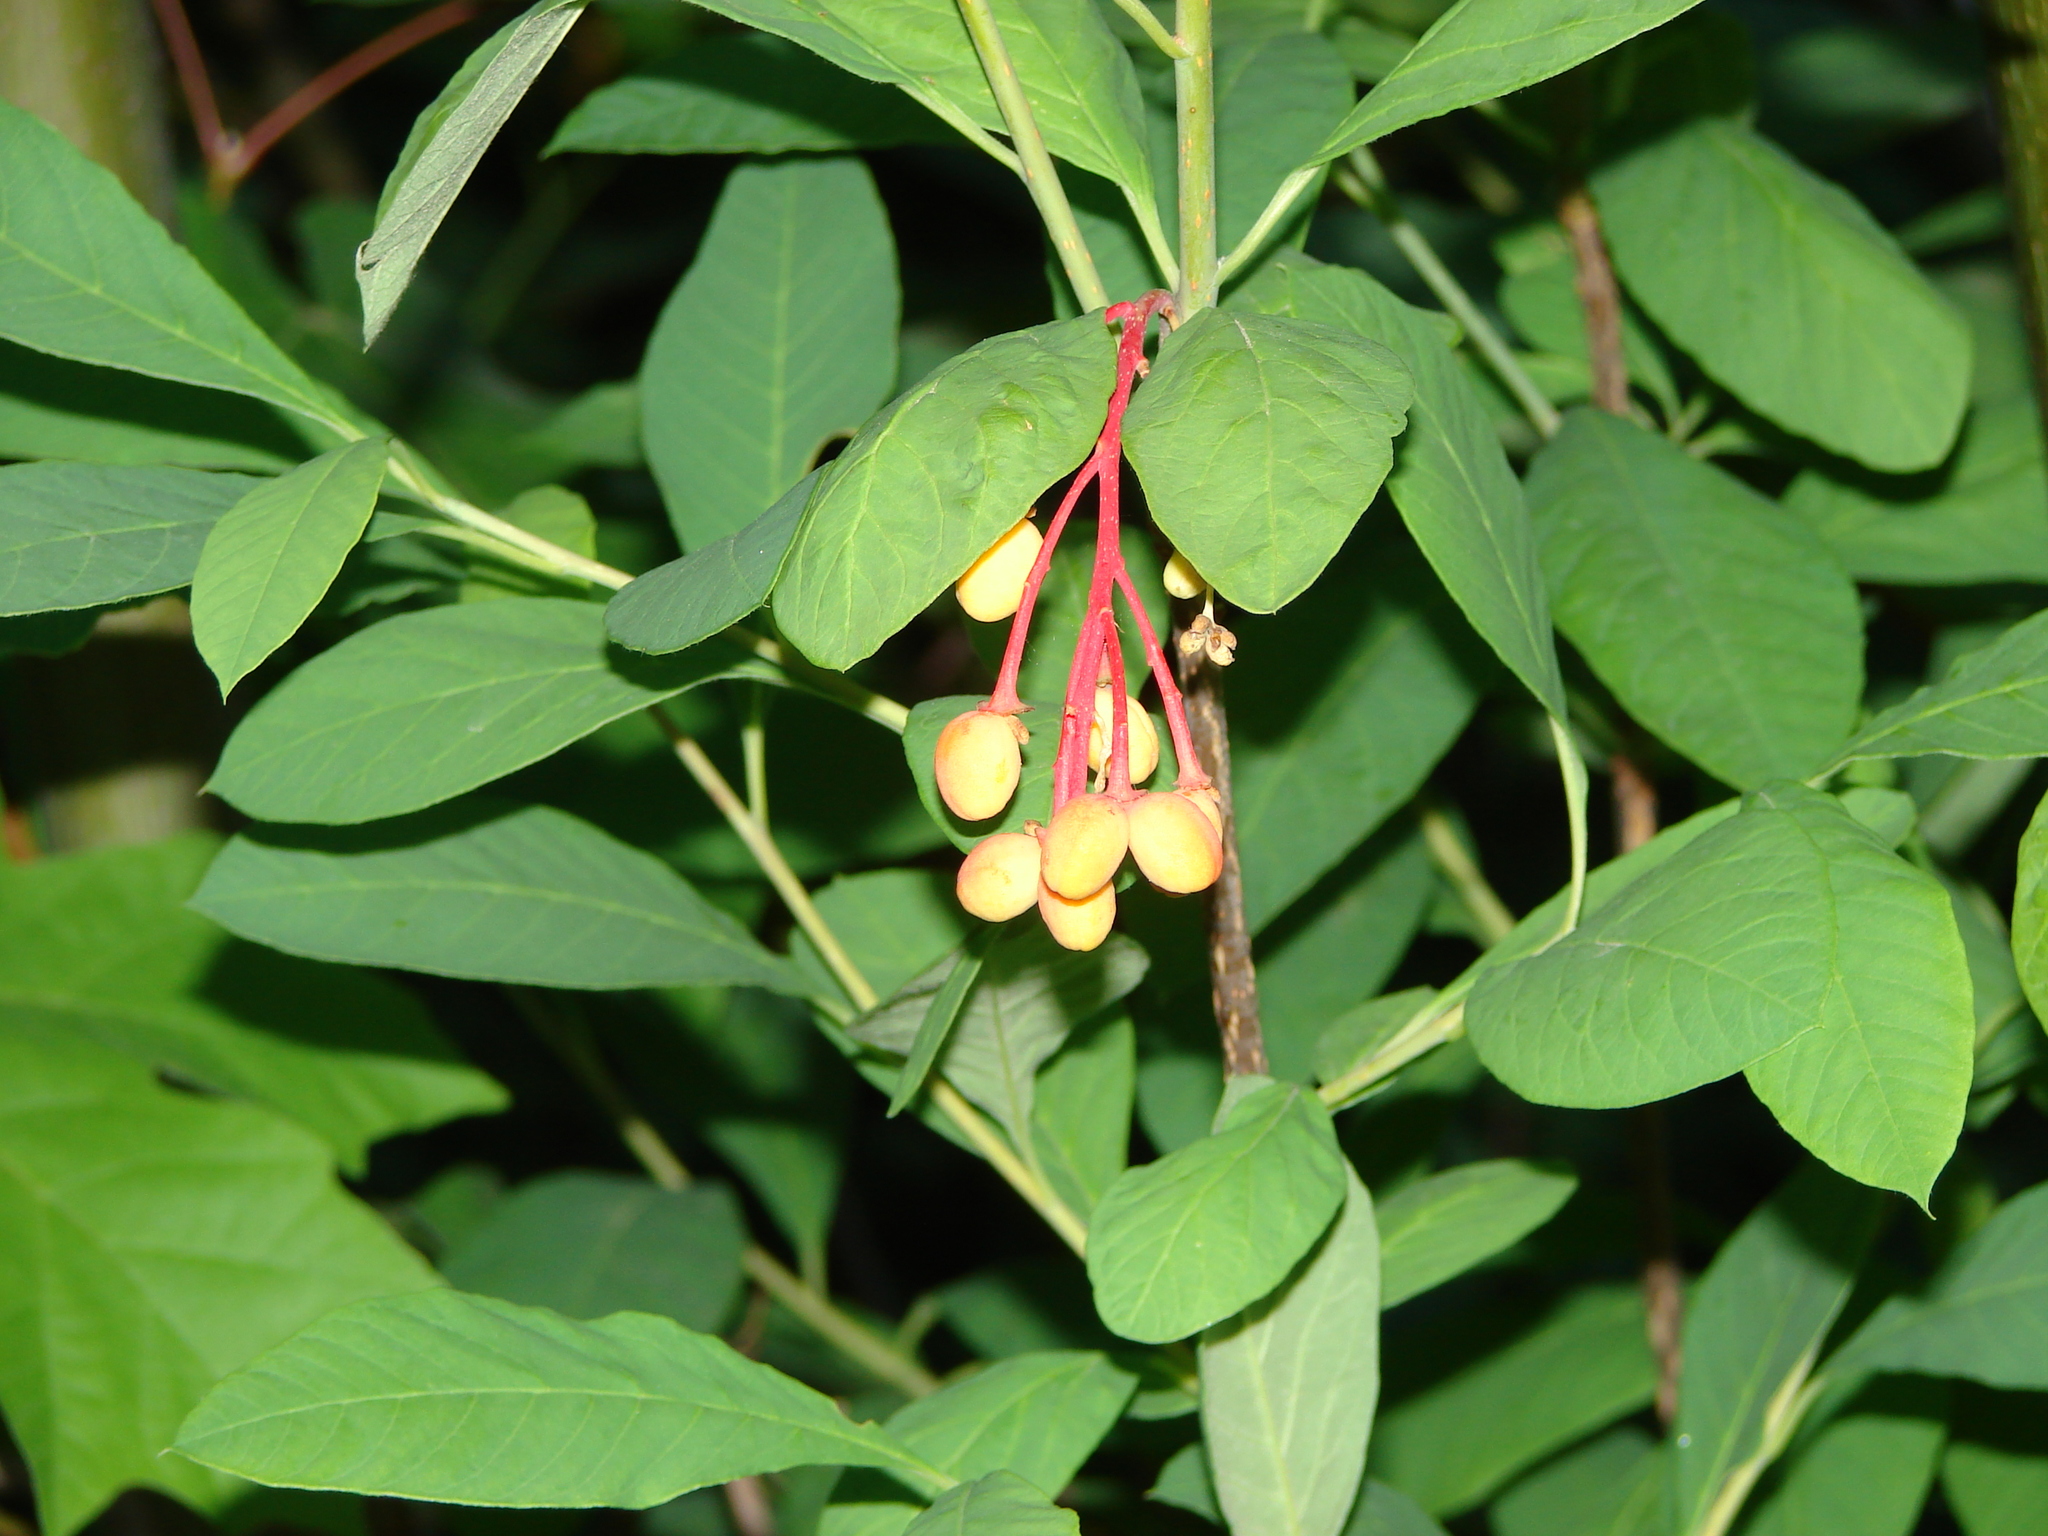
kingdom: Plantae
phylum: Tracheophyta
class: Magnoliopsida
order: Rosales
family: Rosaceae
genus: Oemleria
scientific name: Oemleria cerasiformis
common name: Osoberry
